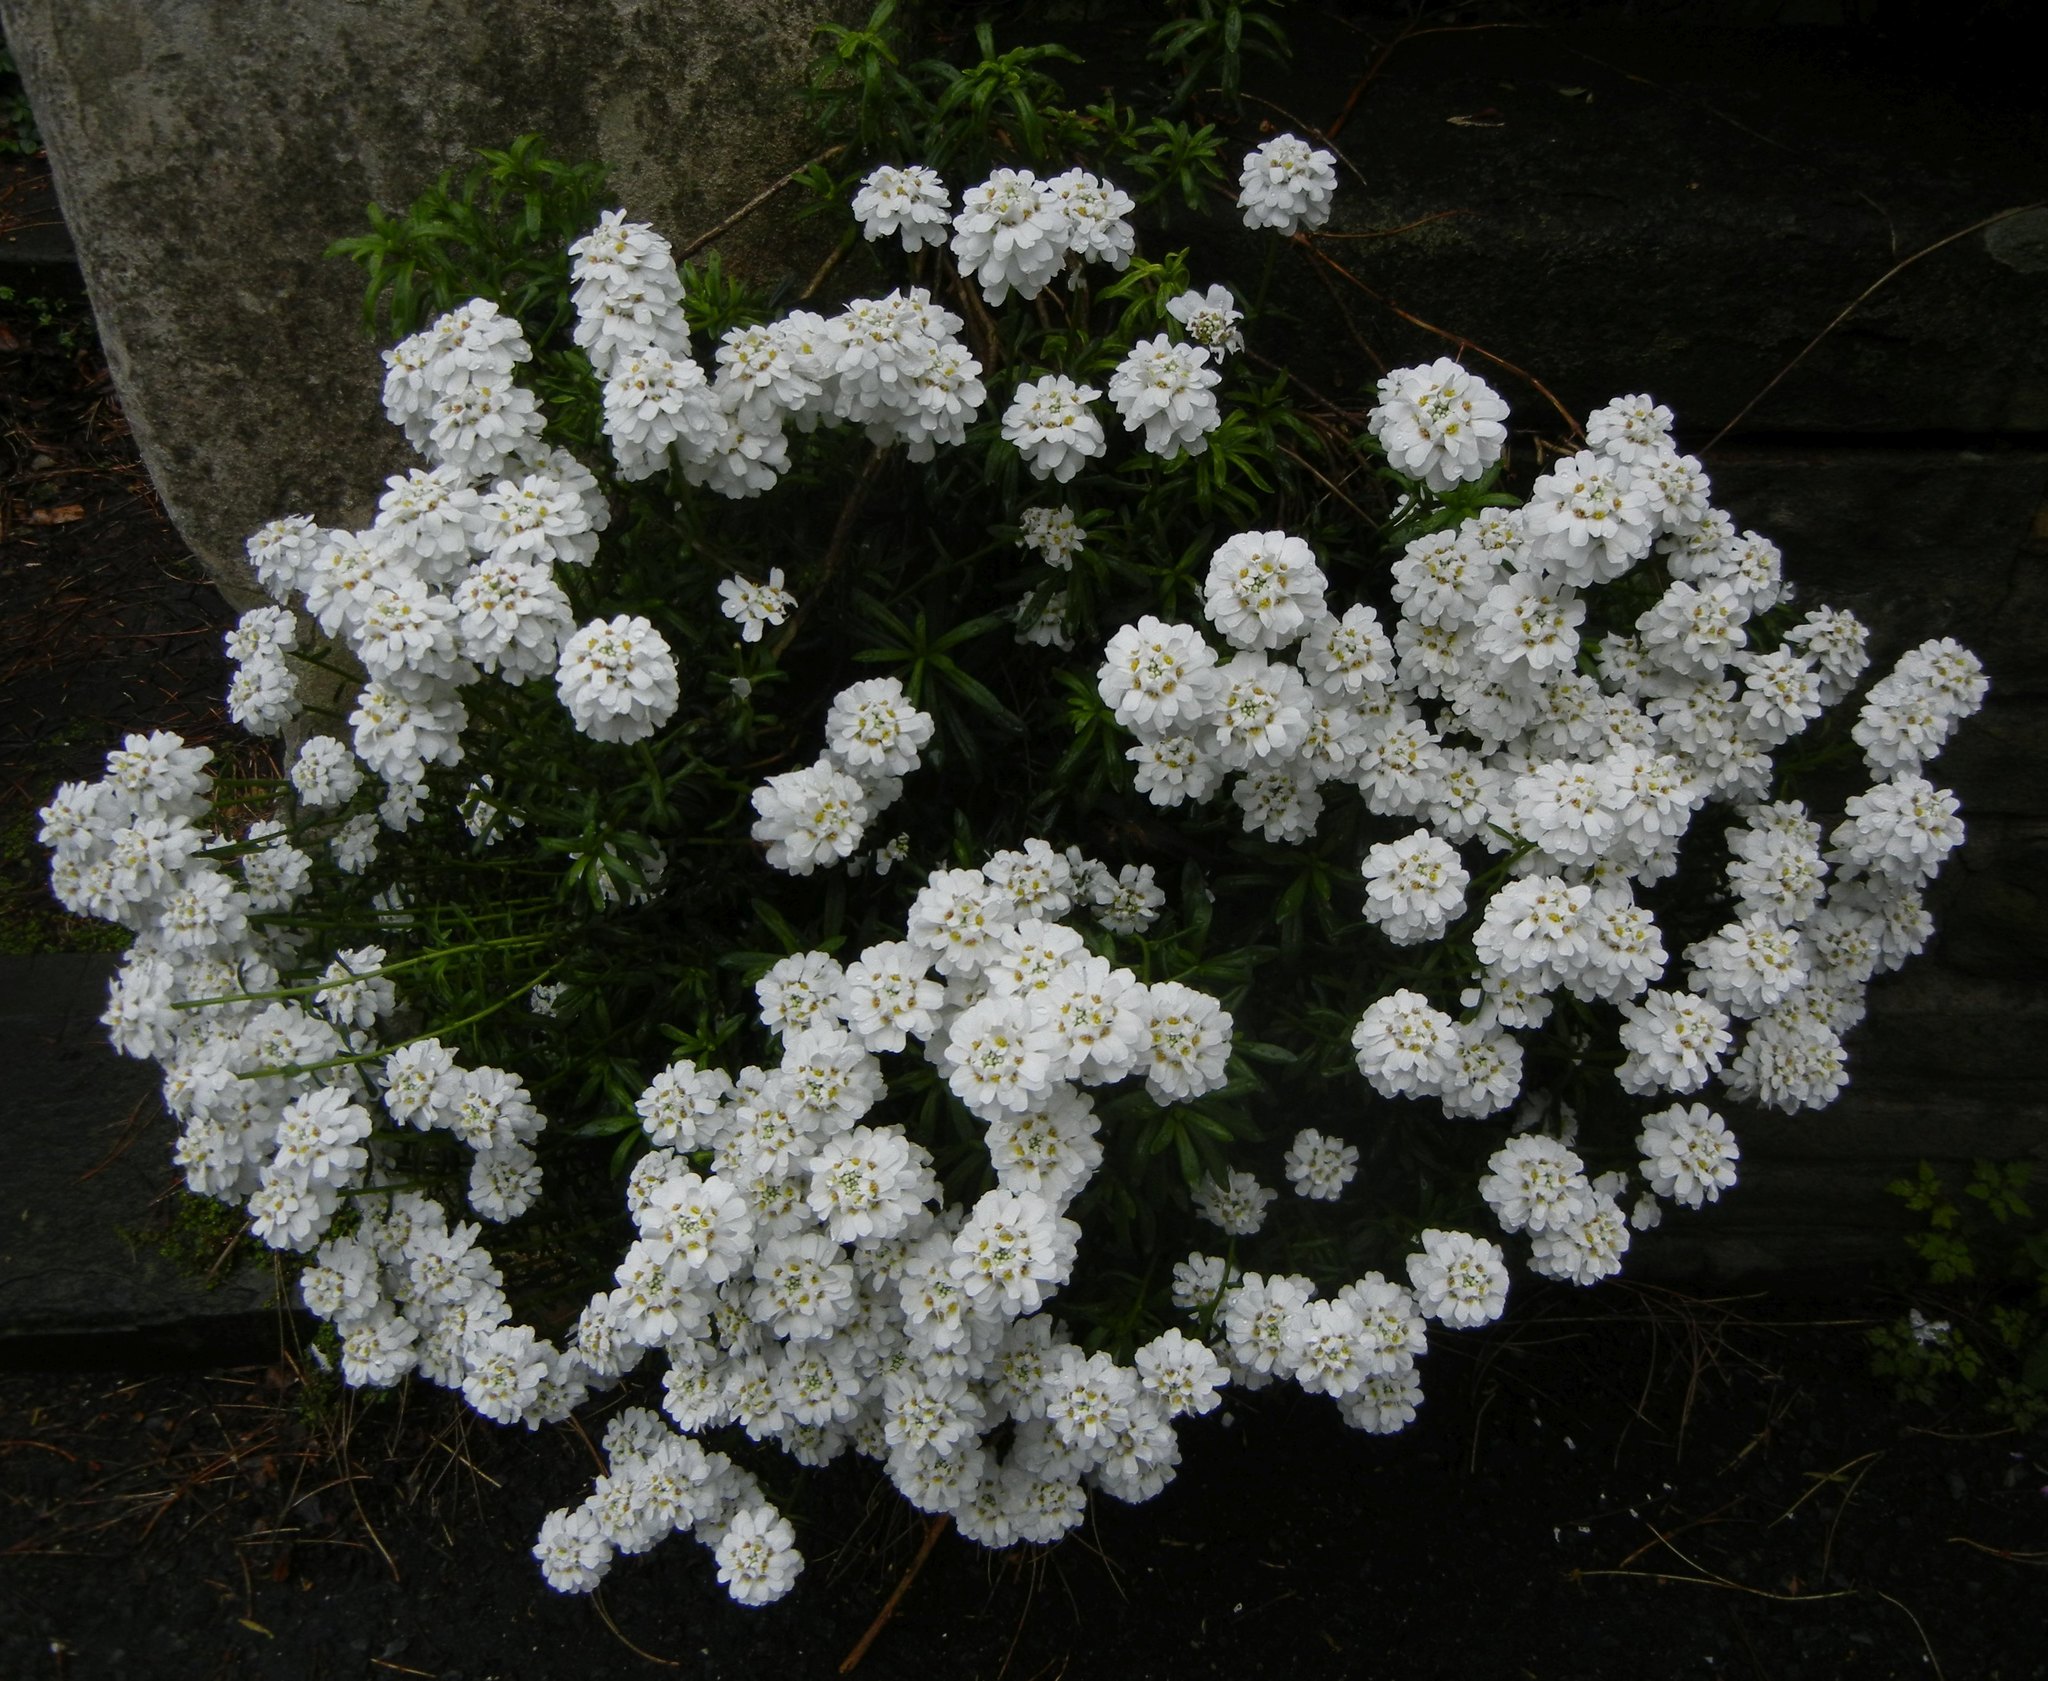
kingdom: Plantae
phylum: Tracheophyta
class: Magnoliopsida
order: Brassicales
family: Brassicaceae
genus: Iberis
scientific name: Iberis sempervirens
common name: Evergreen candytuft
